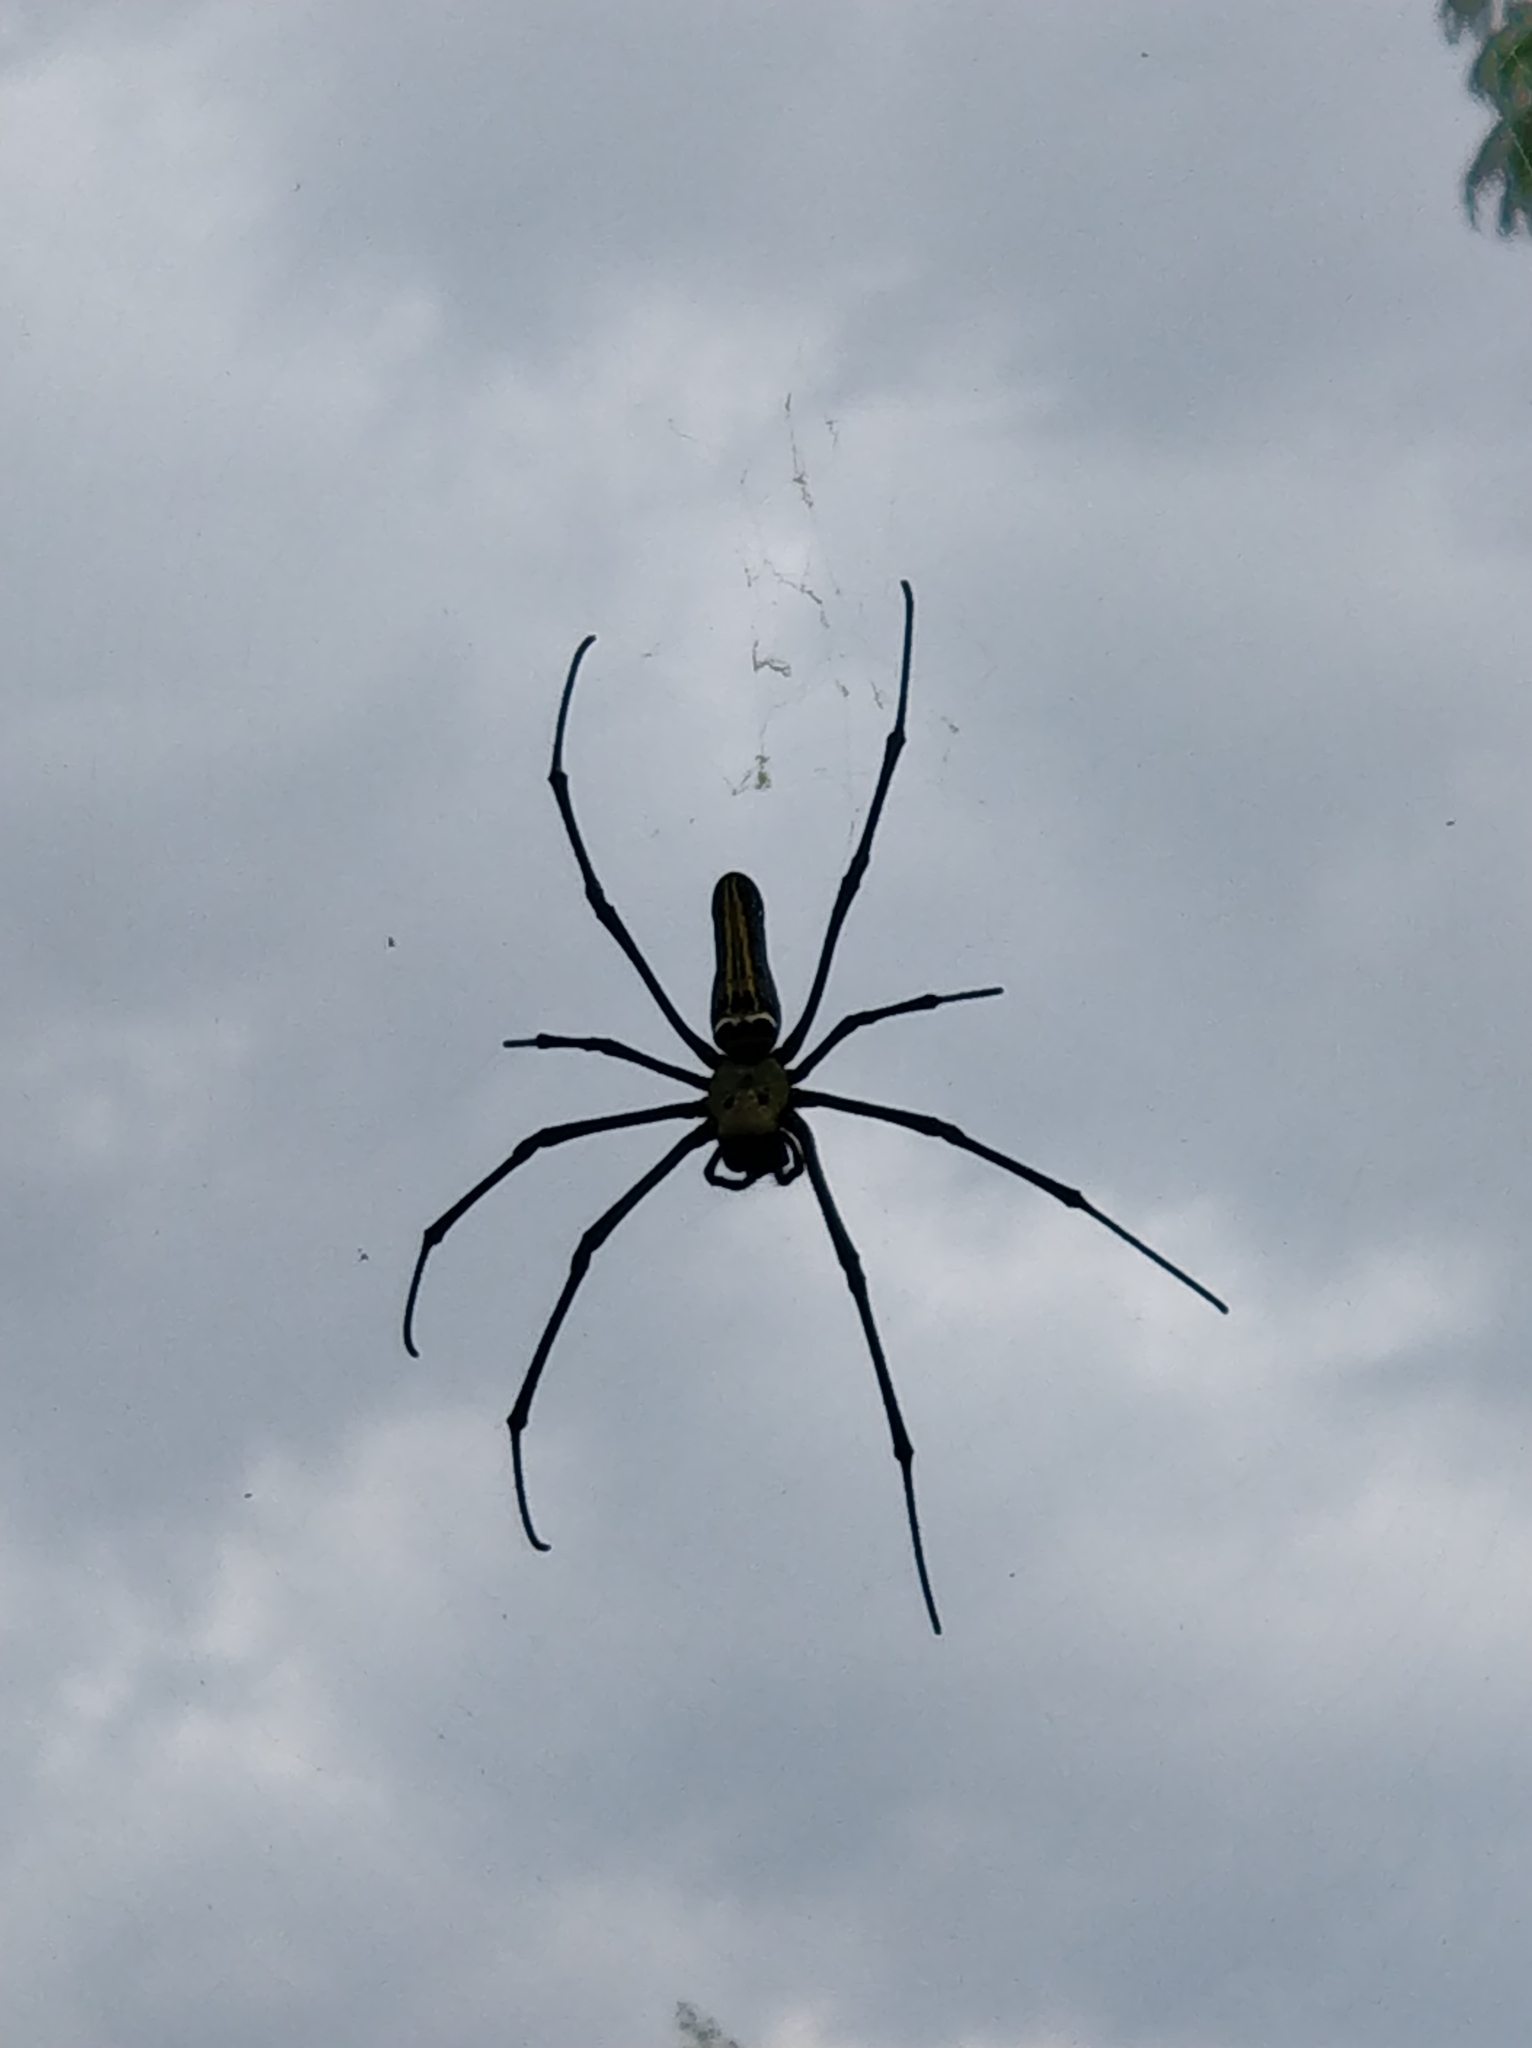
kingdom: Animalia
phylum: Arthropoda
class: Arachnida
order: Araneae
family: Araneidae
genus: Nephila
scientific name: Nephila pilipes
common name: Giant golden orb weaver
